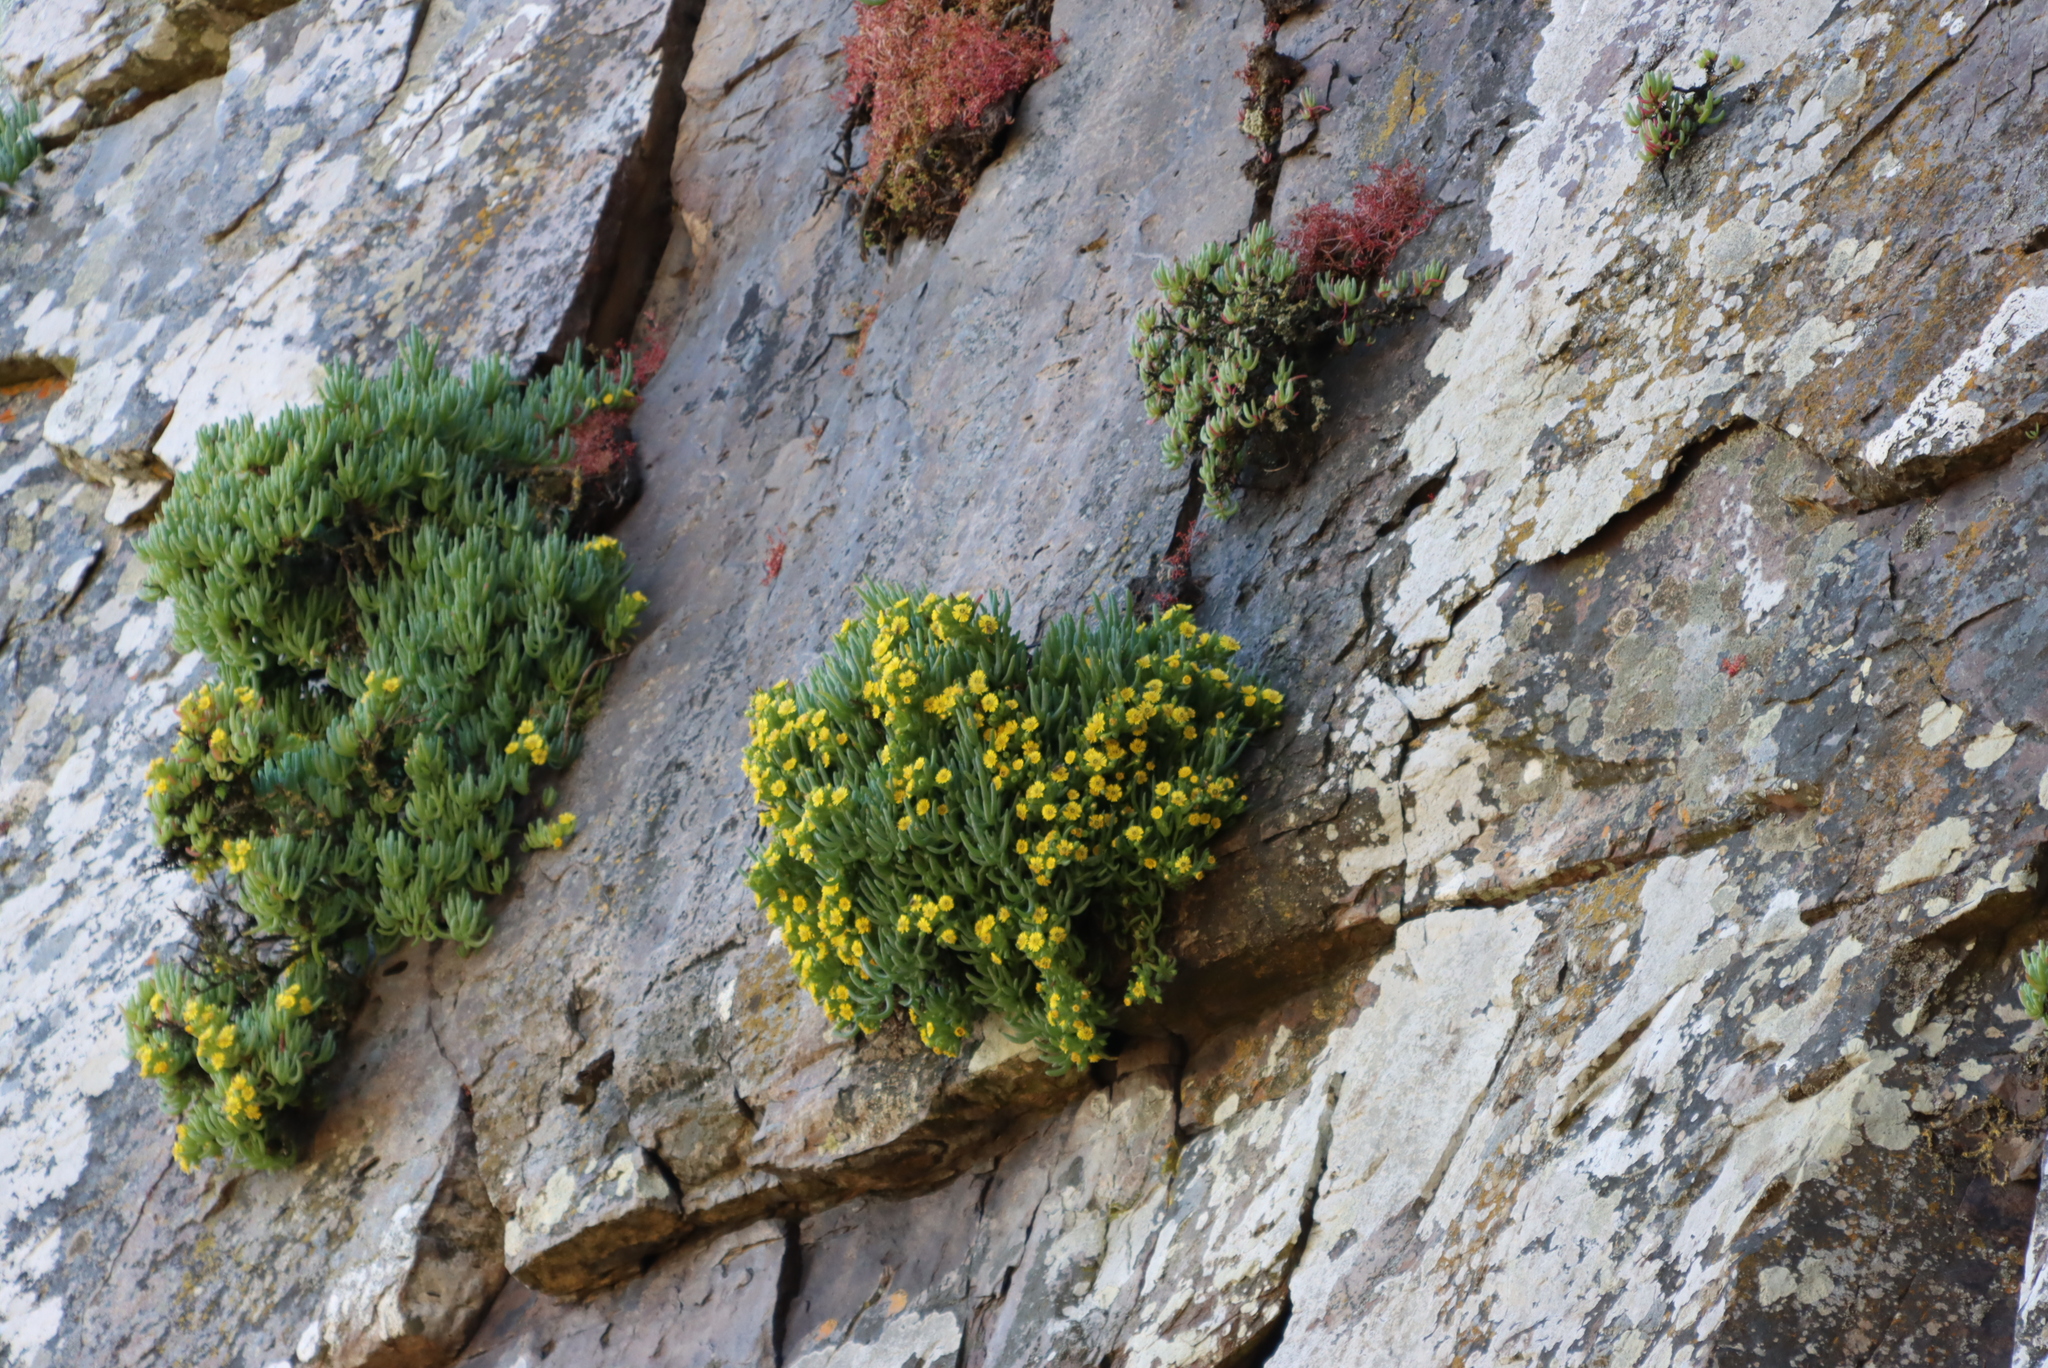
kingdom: Plantae
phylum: Tracheophyta
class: Magnoliopsida
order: Caryophyllales
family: Aizoaceae
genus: Scopelogena
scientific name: Scopelogena verruculata
